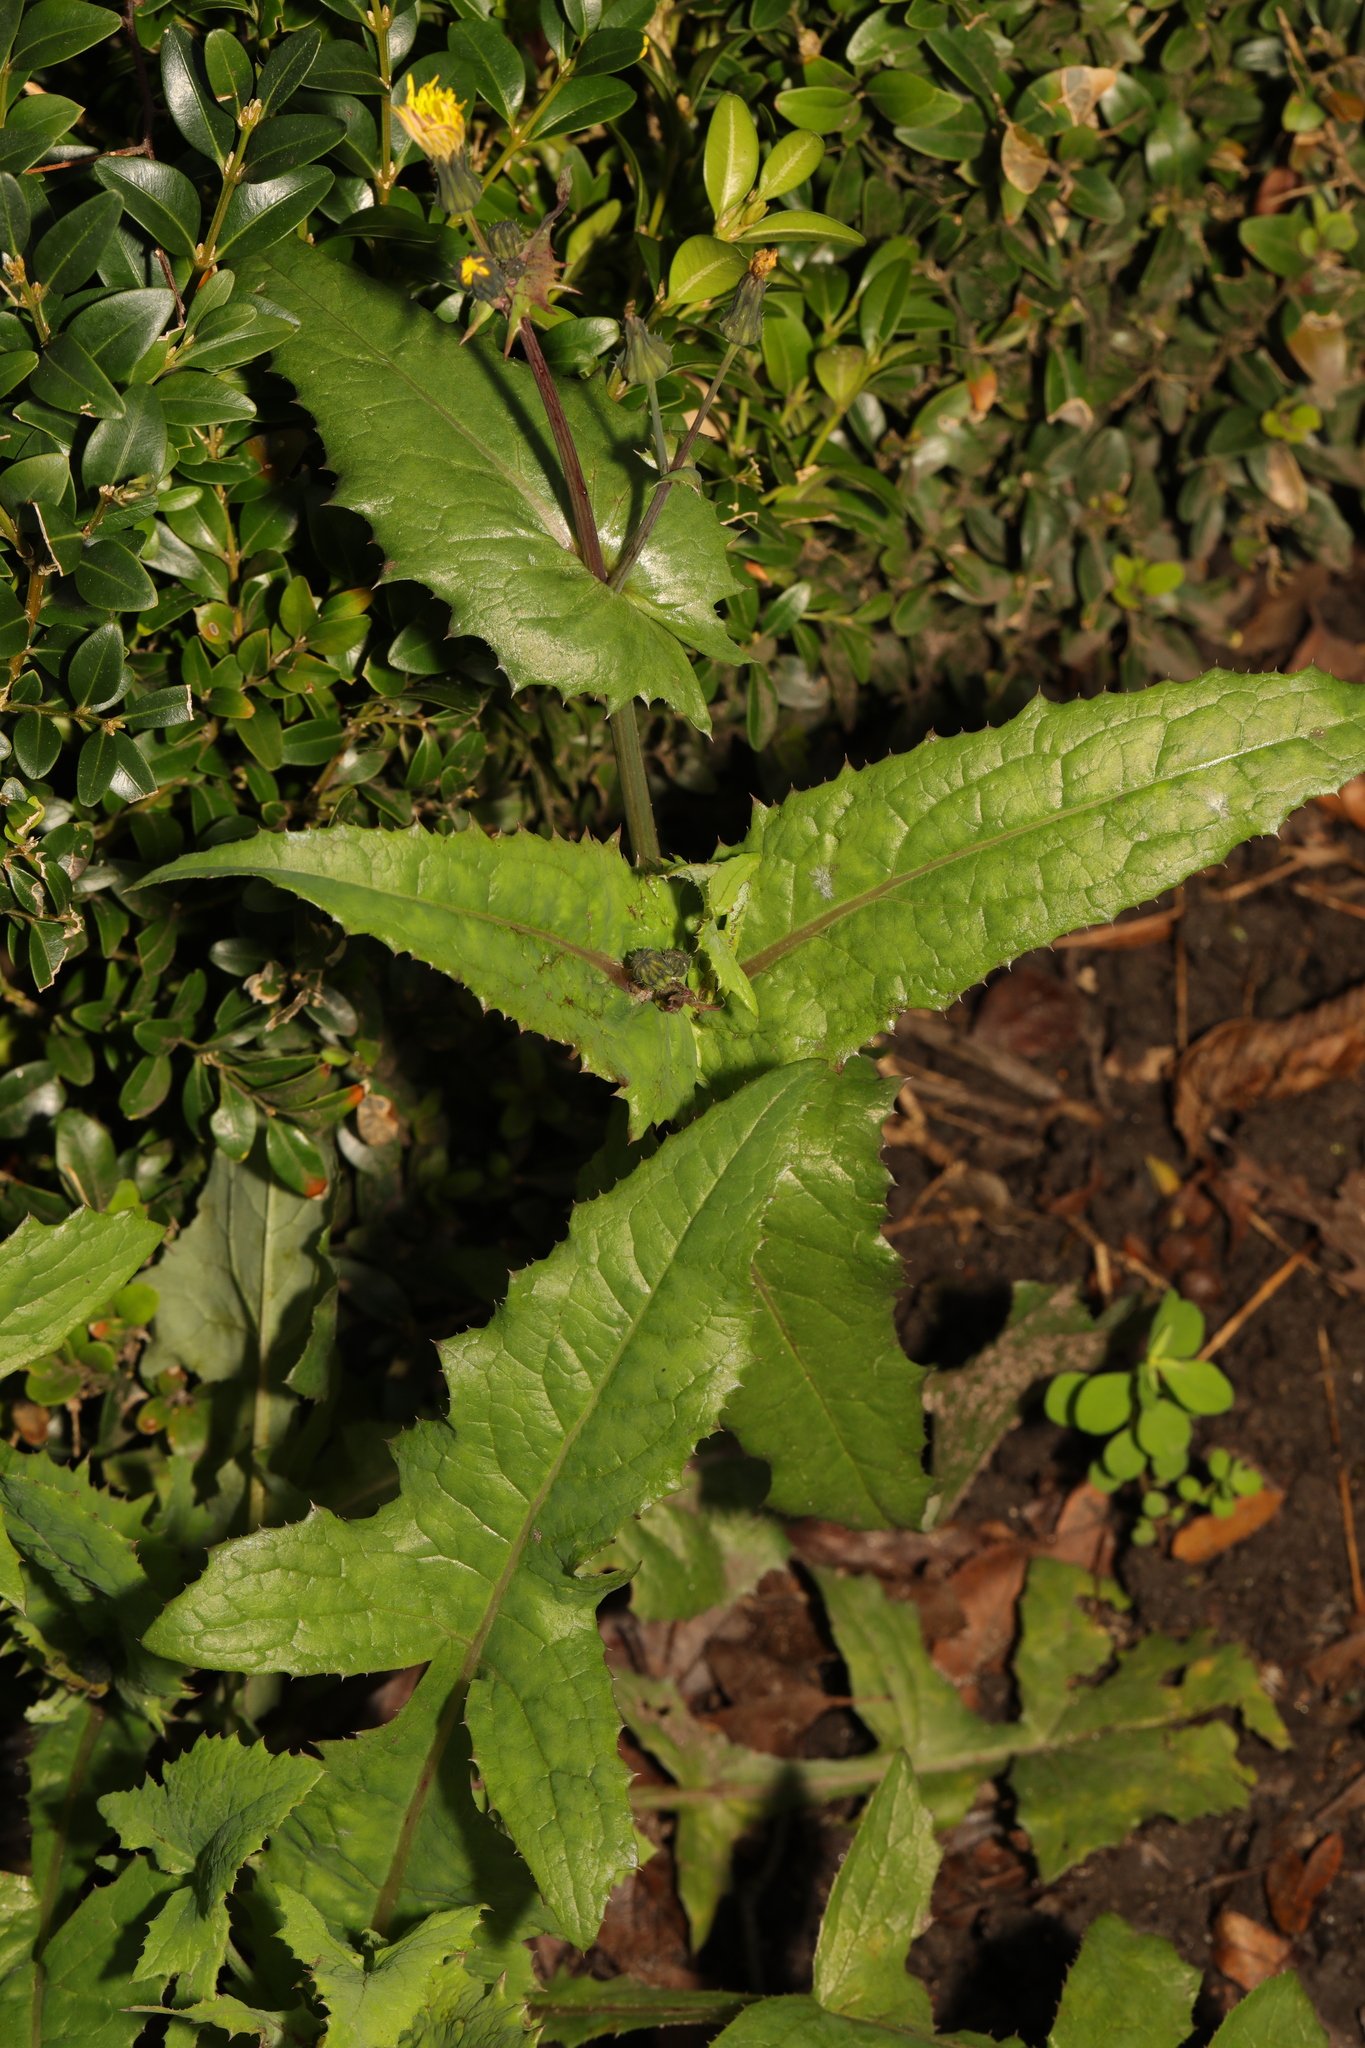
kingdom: Plantae
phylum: Tracheophyta
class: Magnoliopsida
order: Asterales
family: Asteraceae
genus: Sonchus
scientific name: Sonchus oleraceus
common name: Common sowthistle
